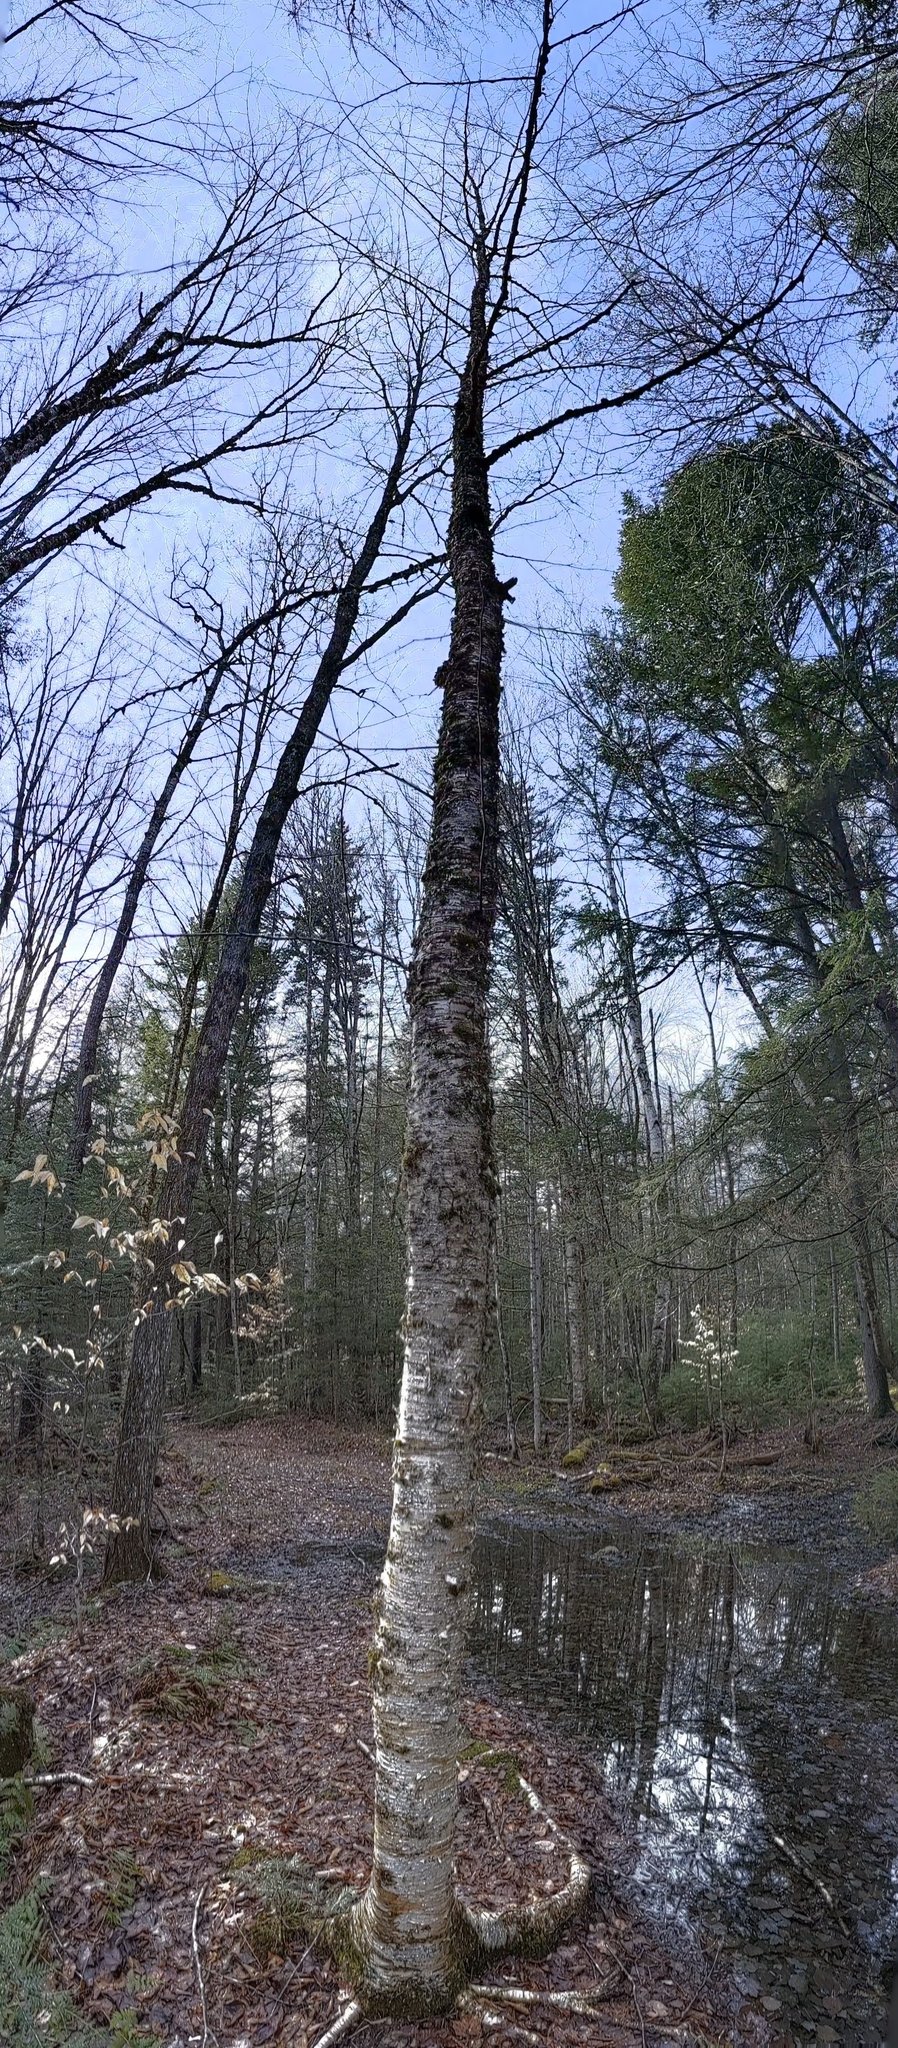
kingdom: Plantae
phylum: Tracheophyta
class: Magnoliopsida
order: Fagales
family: Betulaceae
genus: Betula
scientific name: Betula alleghaniensis
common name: Yellow birch
